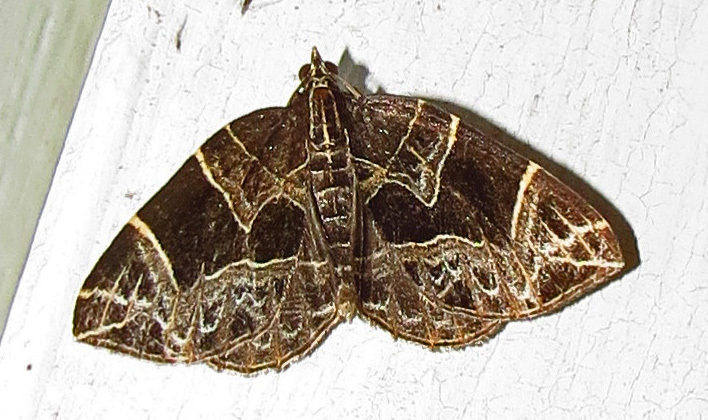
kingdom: Animalia
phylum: Arthropoda
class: Insecta
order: Lepidoptera
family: Geometridae
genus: Ecliptopera
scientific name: Ecliptopera atricolorata
